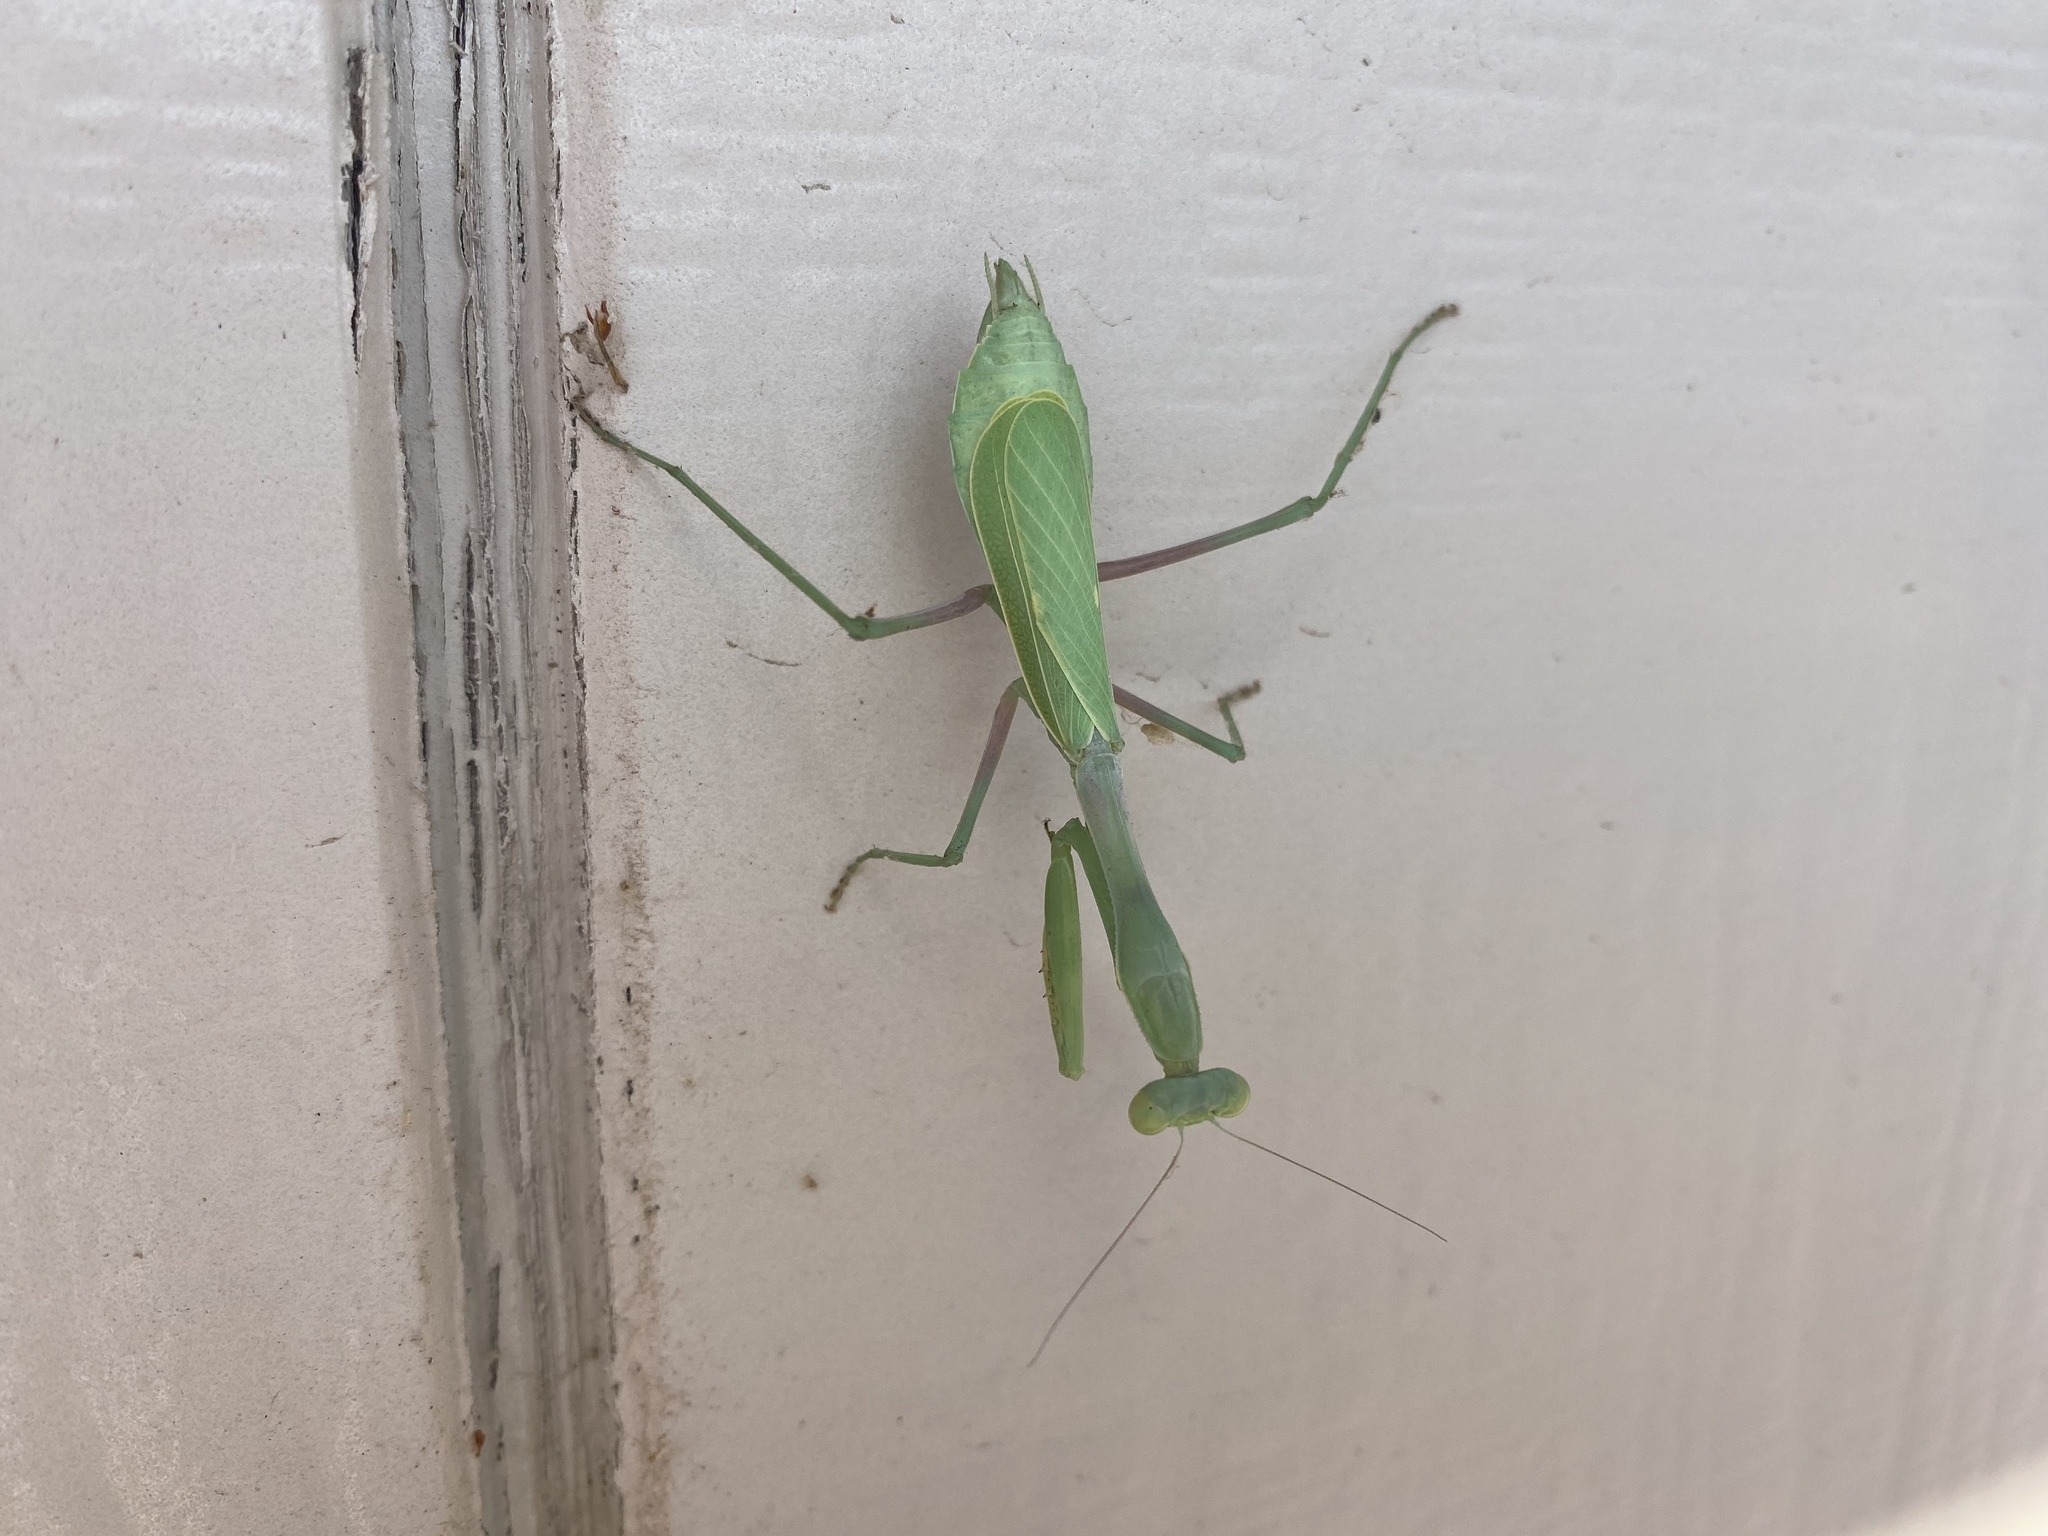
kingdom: Animalia
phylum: Arthropoda
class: Insecta
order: Mantodea
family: Mantidae
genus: Stagmomantis
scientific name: Stagmomantis limbata
